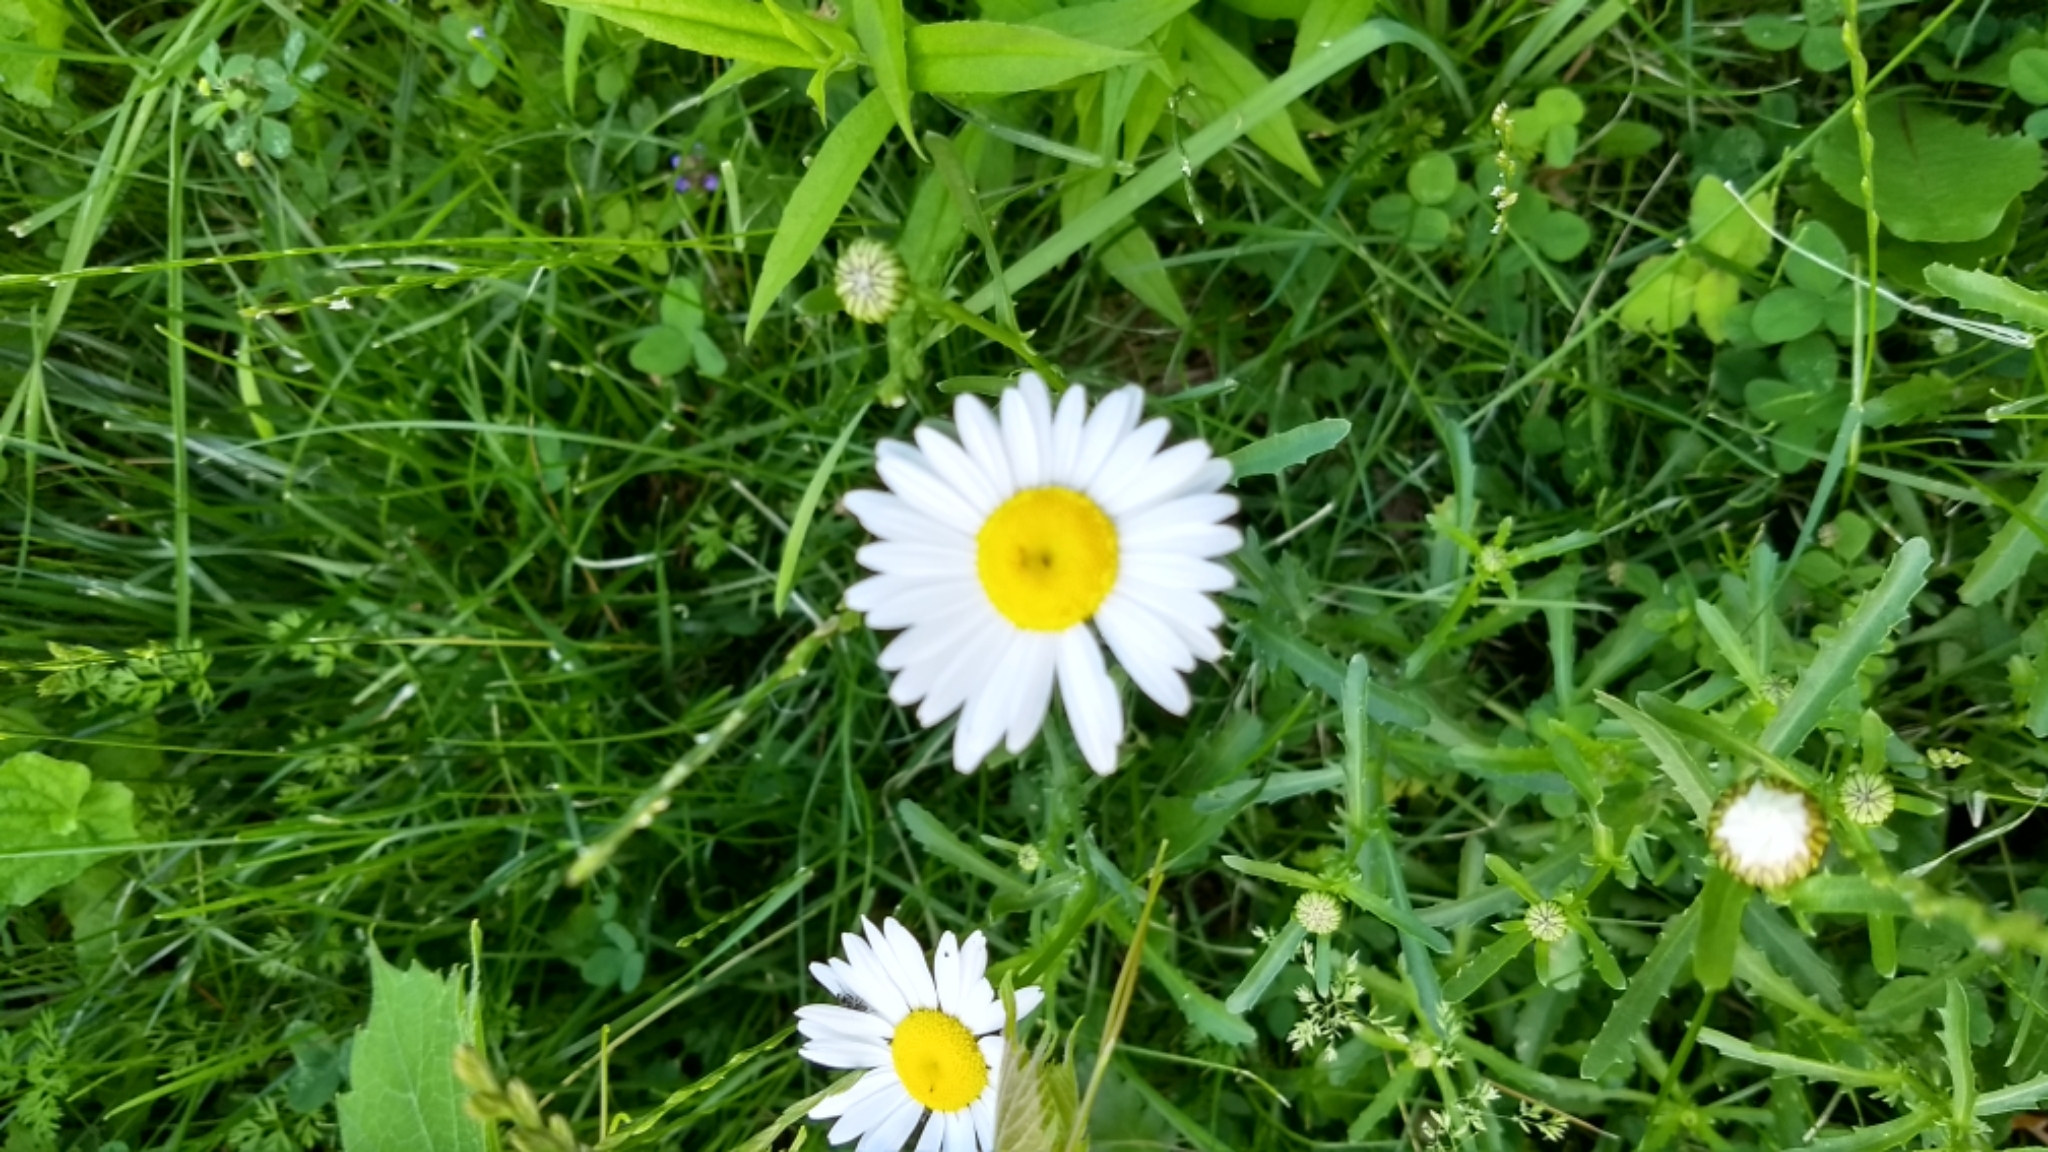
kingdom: Plantae
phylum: Tracheophyta
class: Magnoliopsida
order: Asterales
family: Asteraceae
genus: Leucanthemum
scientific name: Leucanthemum vulgare
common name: Oxeye daisy
